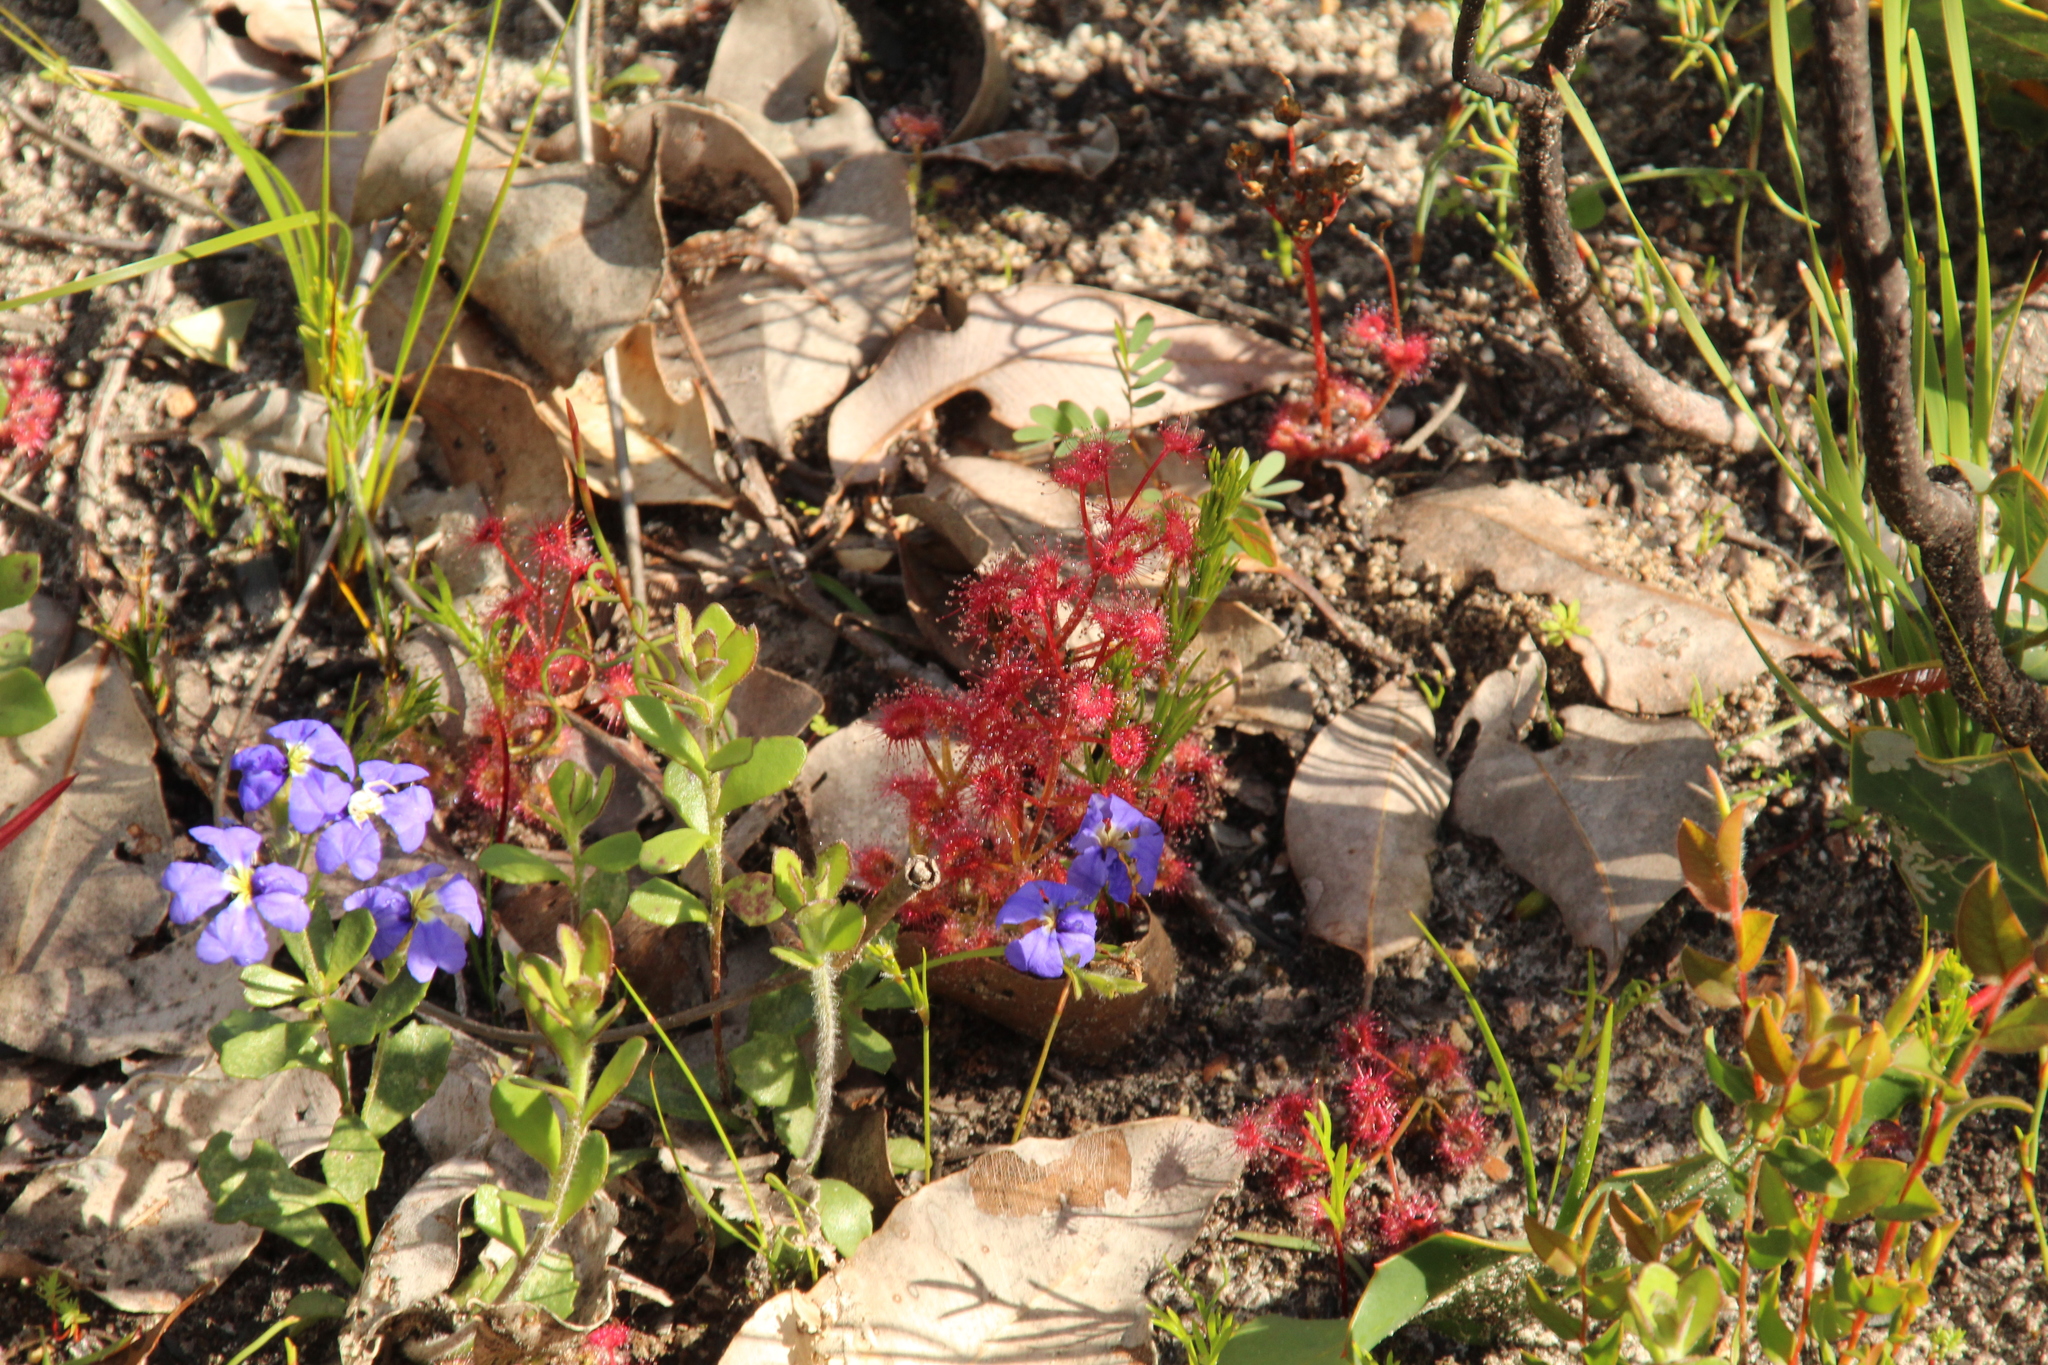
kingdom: Plantae
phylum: Tracheophyta
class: Magnoliopsida
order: Caryophyllales
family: Droseraceae
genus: Drosera
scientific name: Drosera stolonifera
